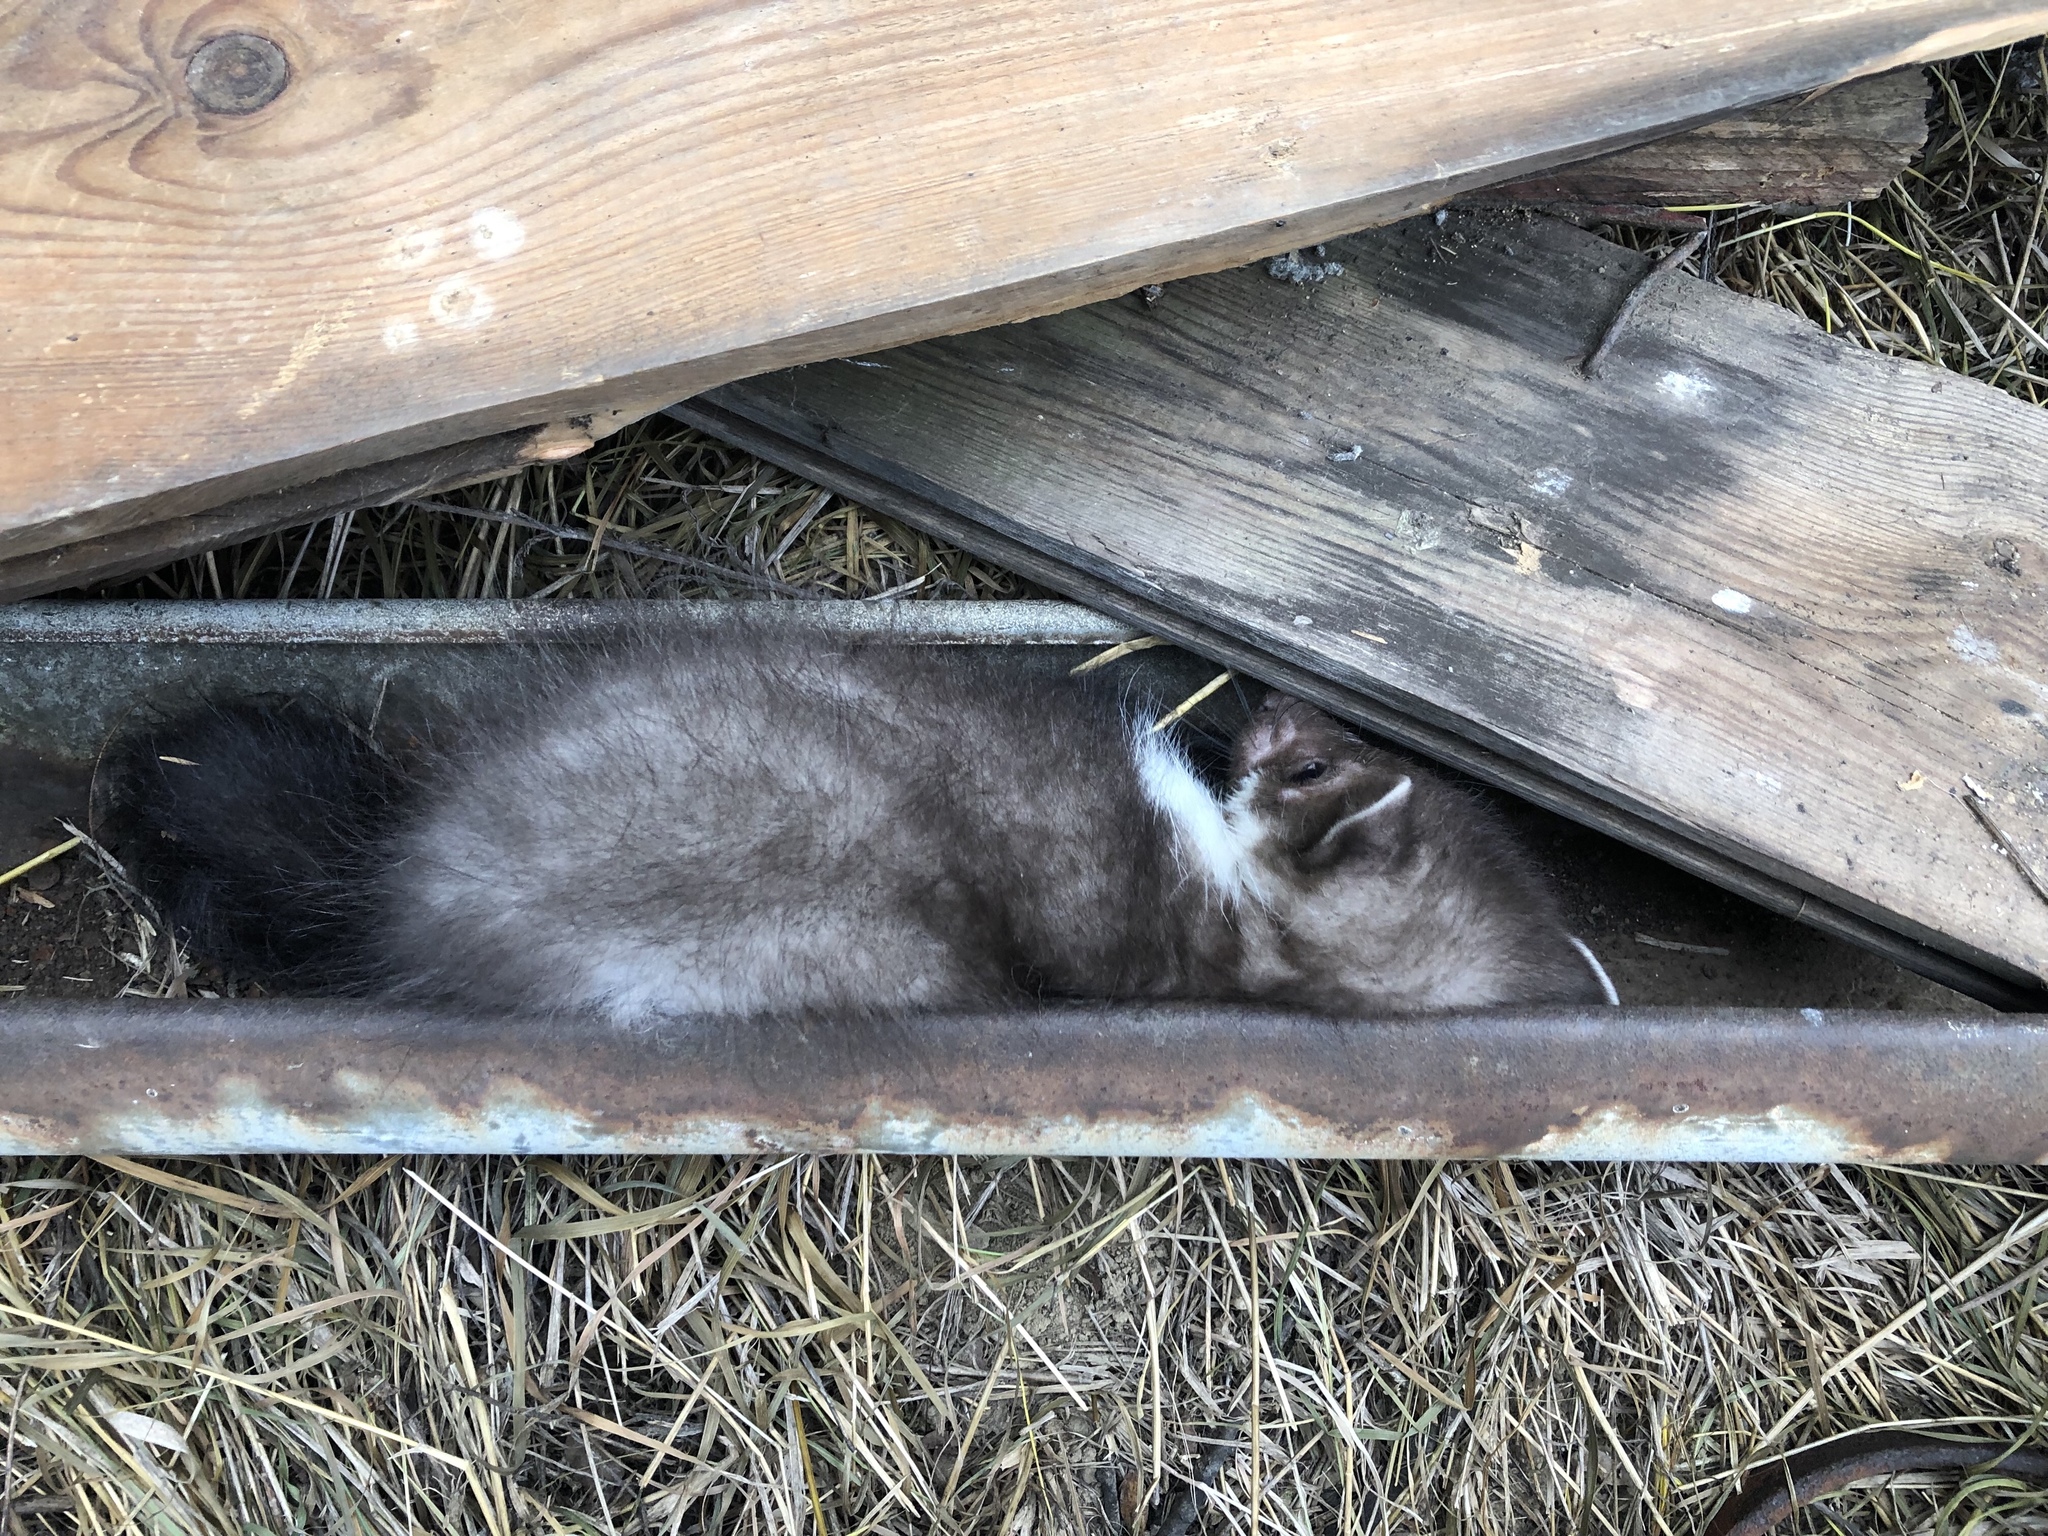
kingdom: Animalia
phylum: Chordata
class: Mammalia
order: Carnivora
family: Mustelidae
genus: Martes
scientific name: Martes foina
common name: Beech marten
